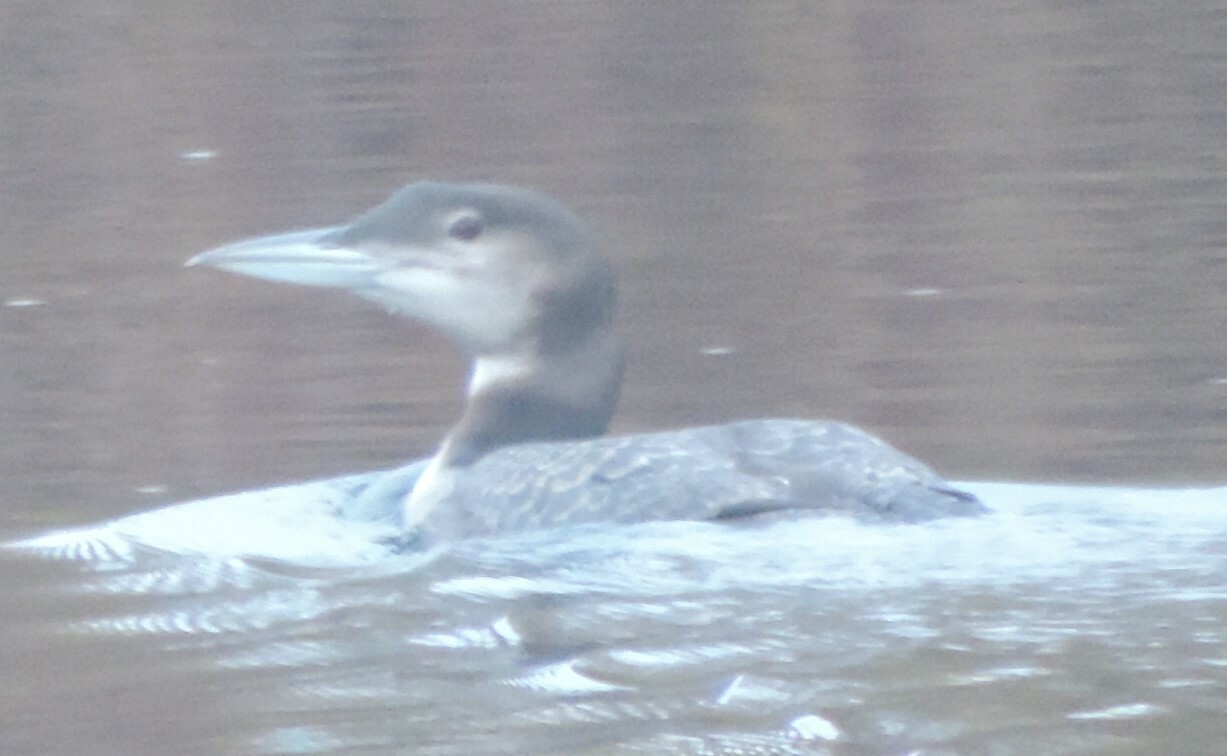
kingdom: Animalia
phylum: Chordata
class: Aves
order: Gaviiformes
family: Gaviidae
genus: Gavia
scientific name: Gavia immer
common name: Common loon
